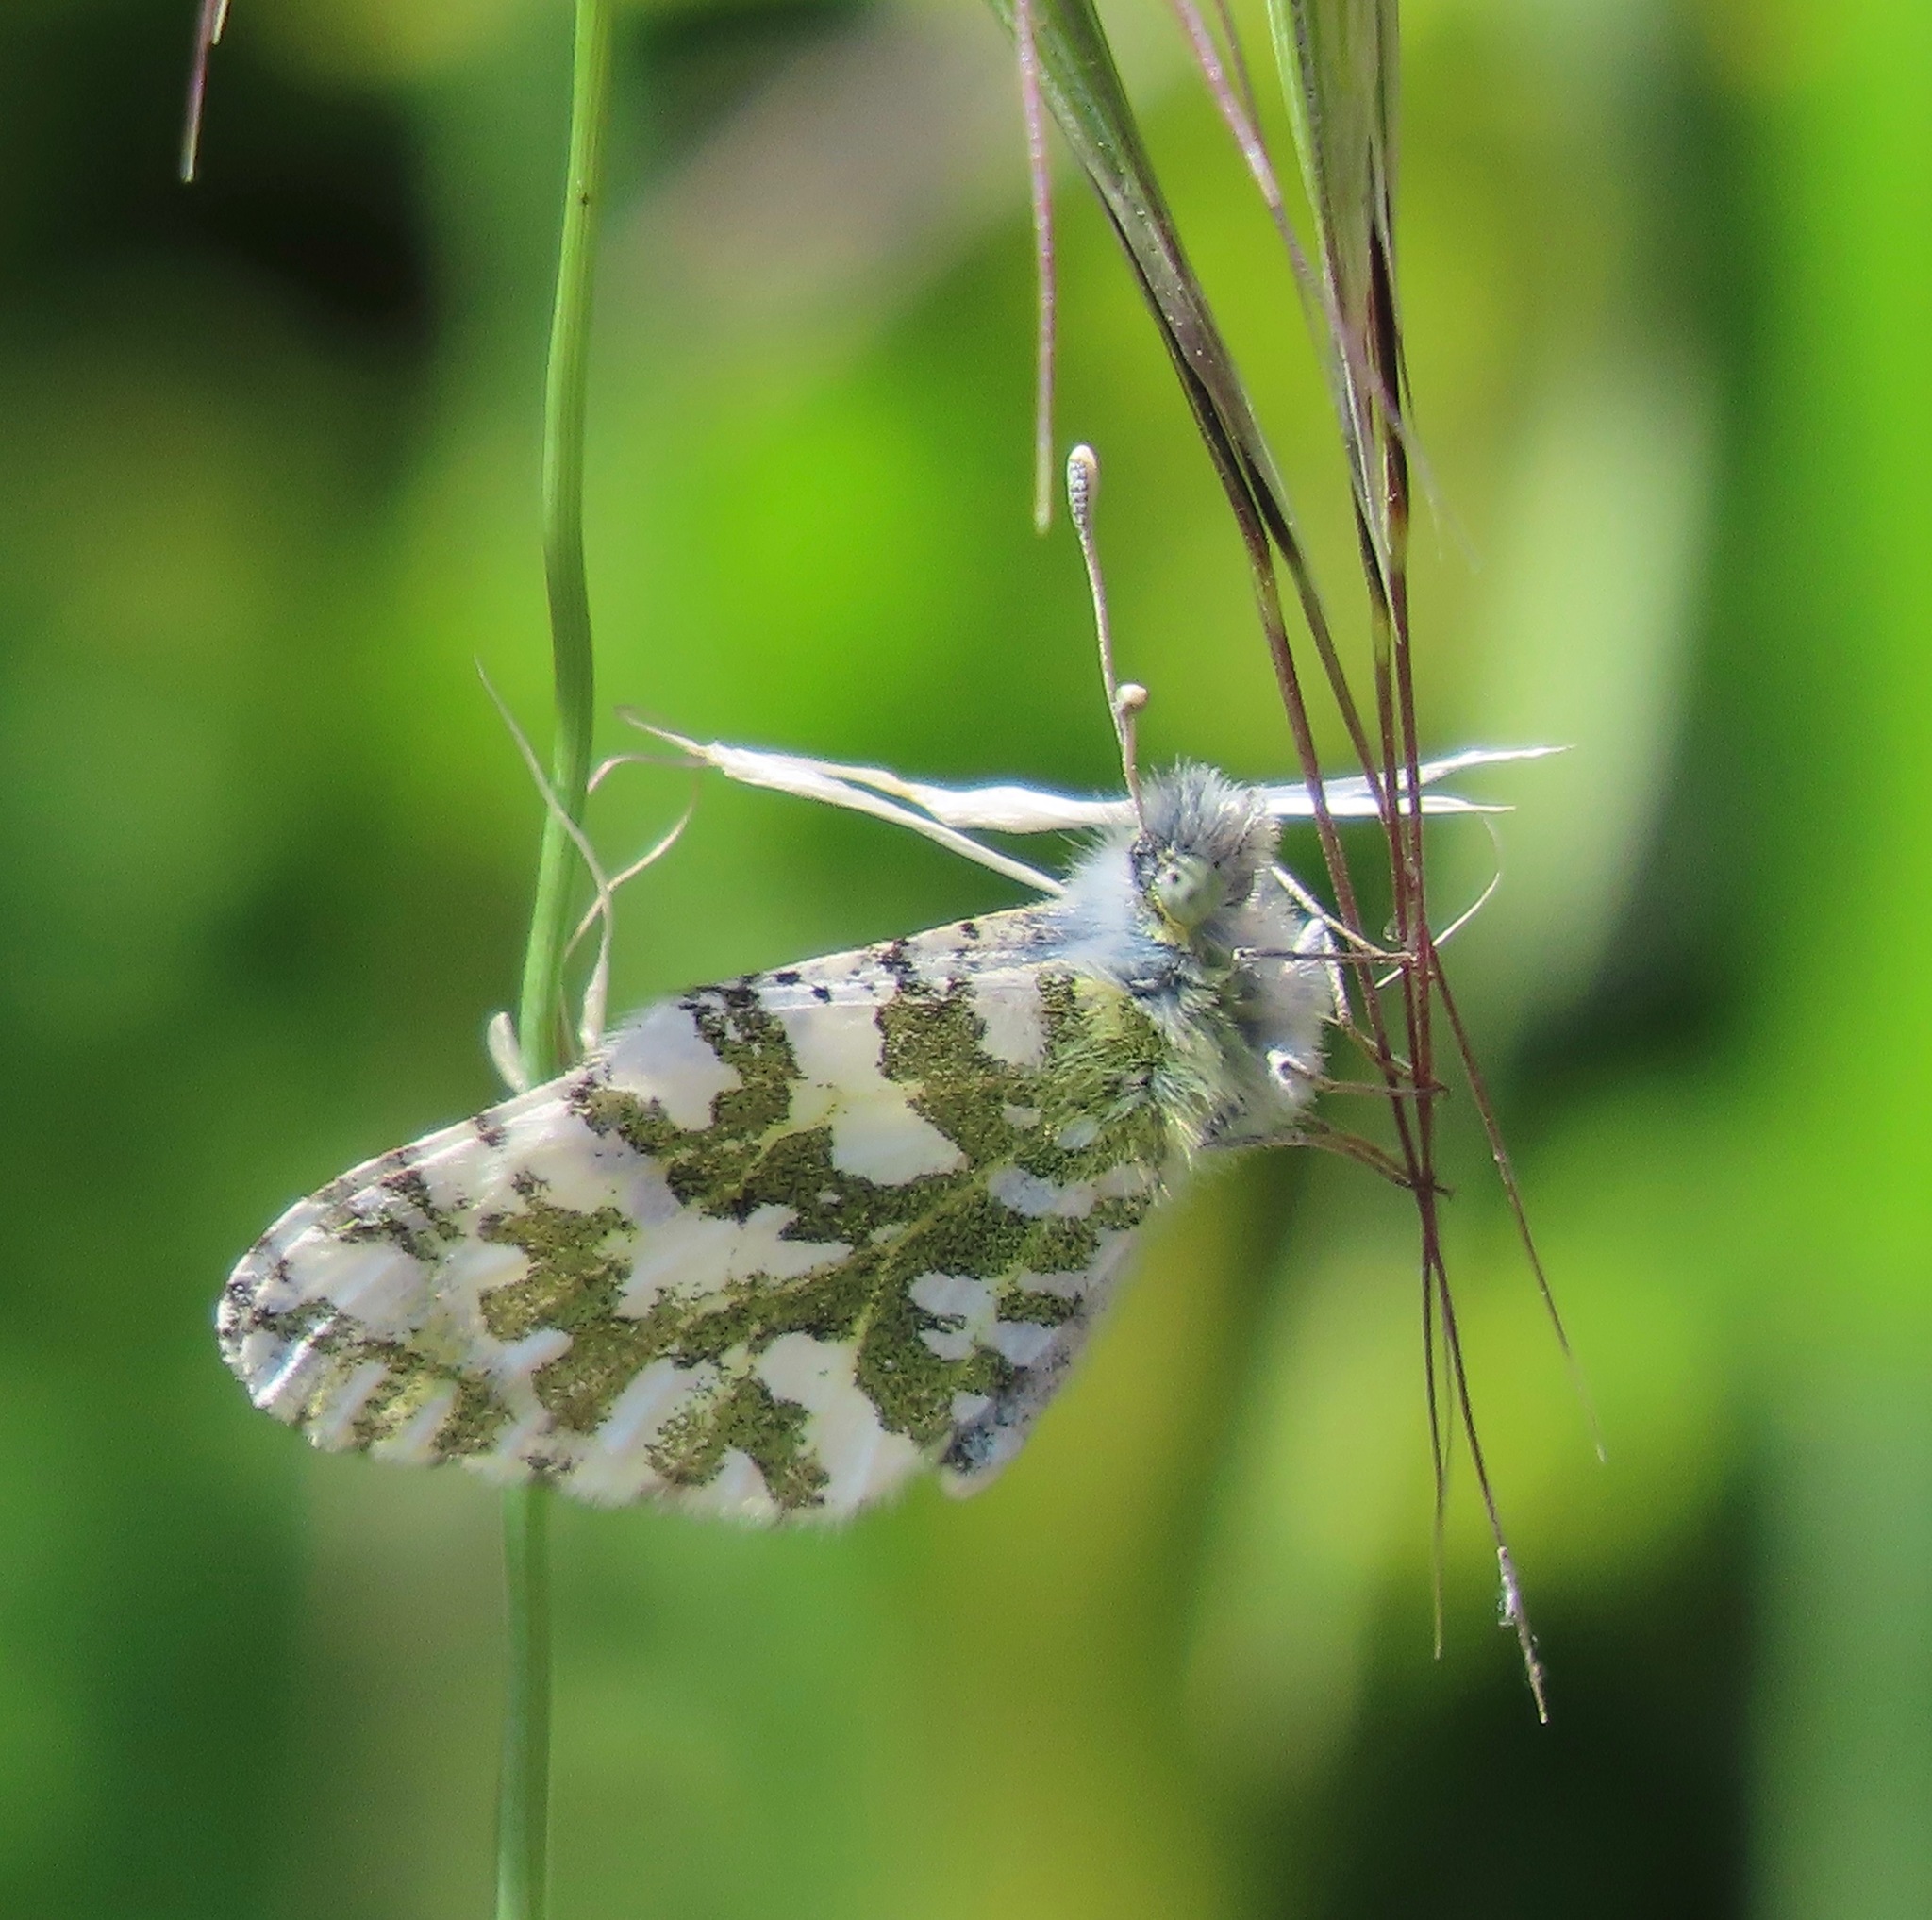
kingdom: Animalia
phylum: Arthropoda
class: Insecta
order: Lepidoptera
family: Pieridae
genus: Euchloe
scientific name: Euchloe hyantis
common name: California marble
